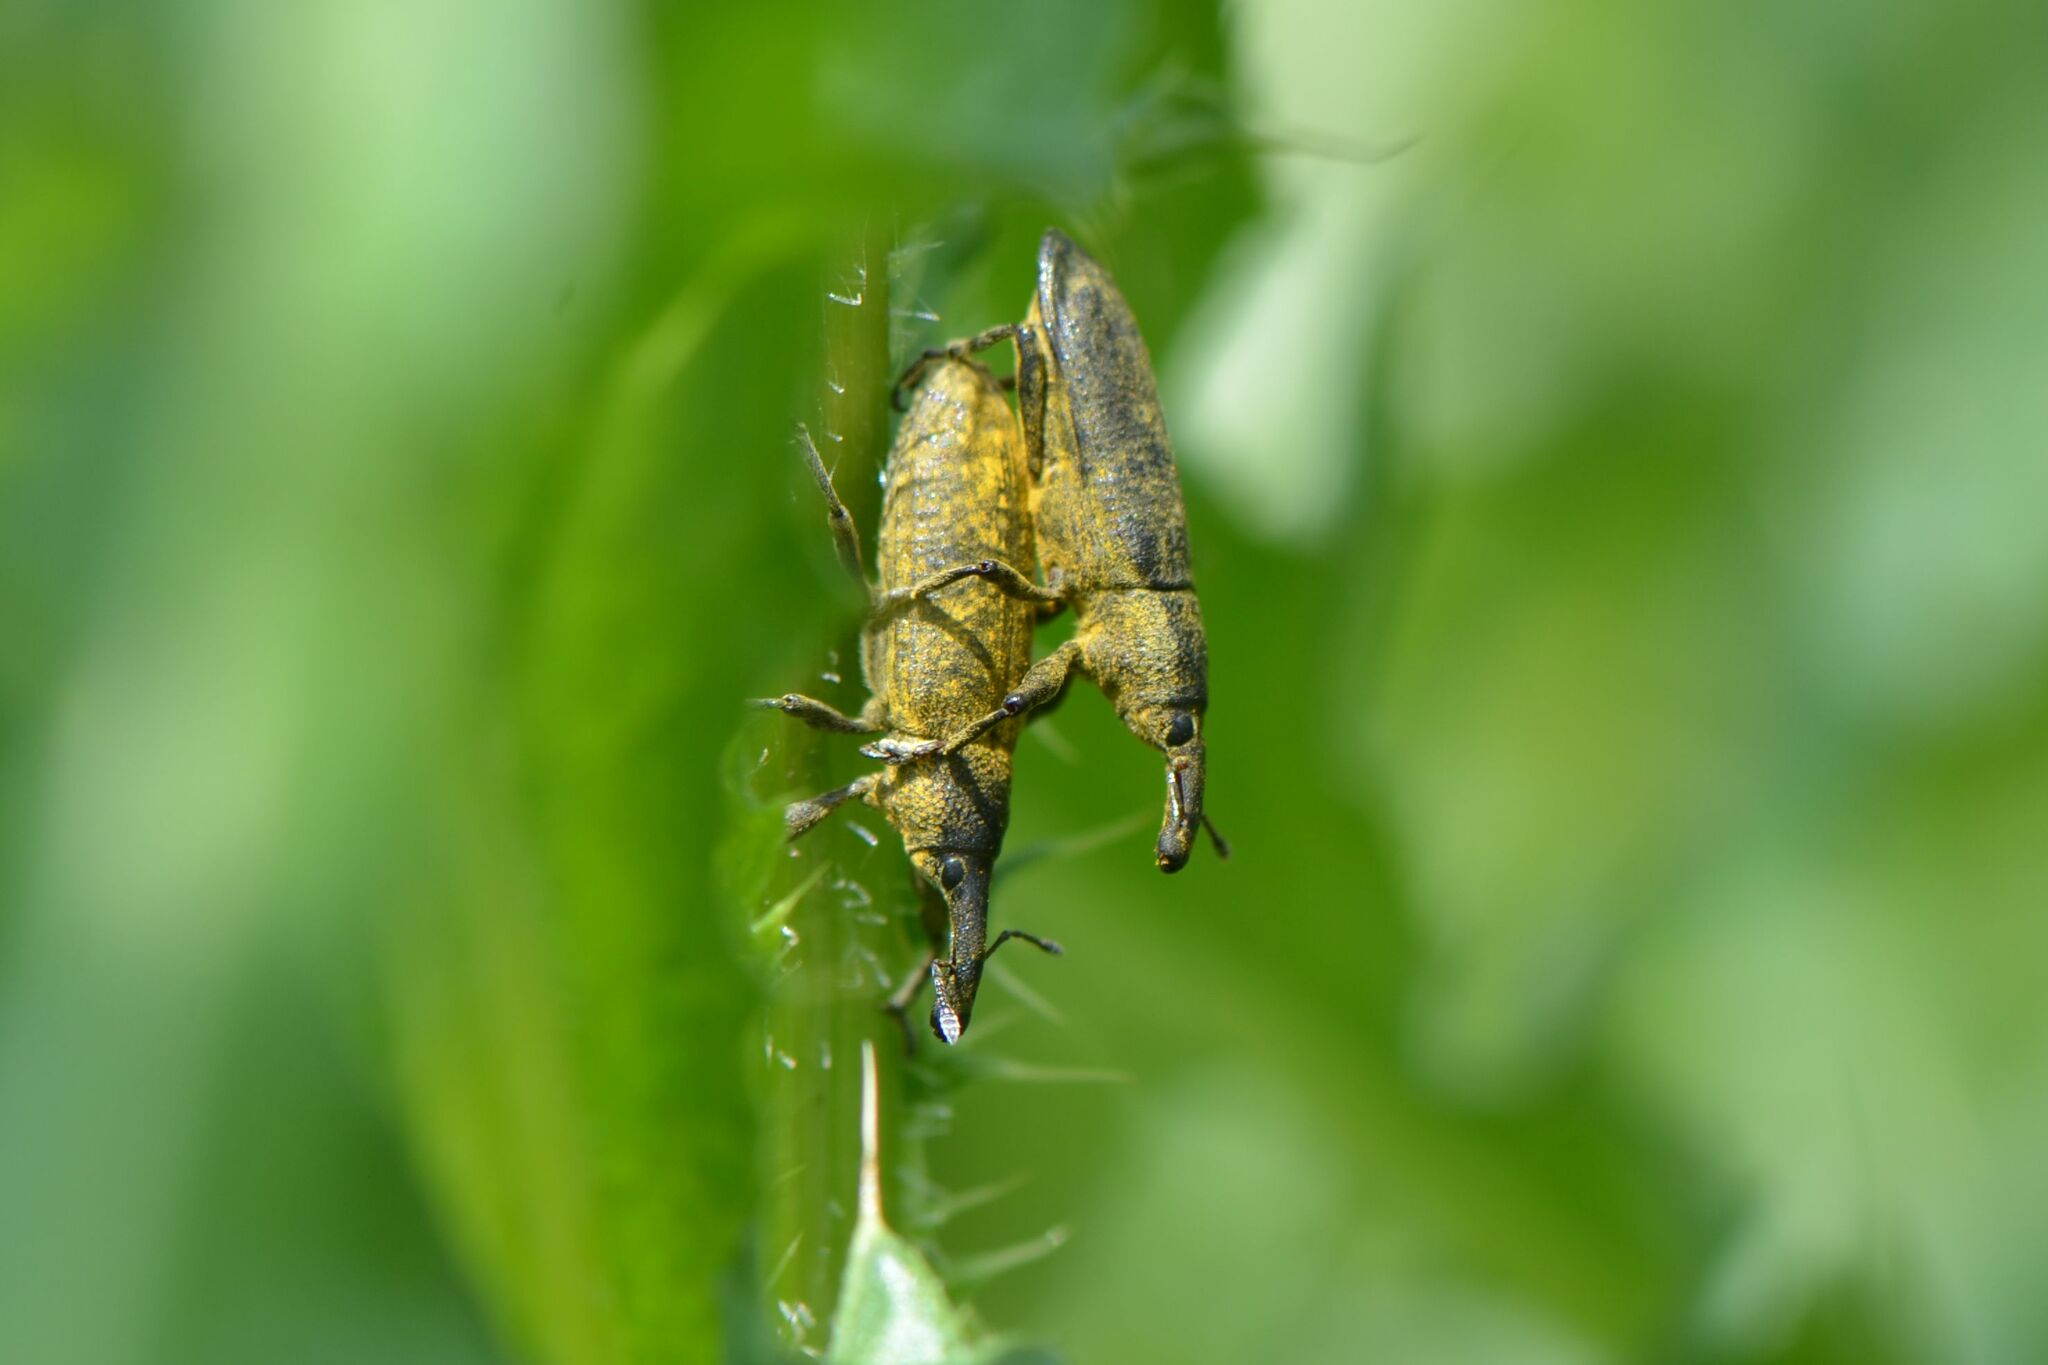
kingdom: Animalia
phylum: Arthropoda
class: Insecta
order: Coleoptera
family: Curculionidae
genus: Lixus
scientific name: Lixus pulverulentus
